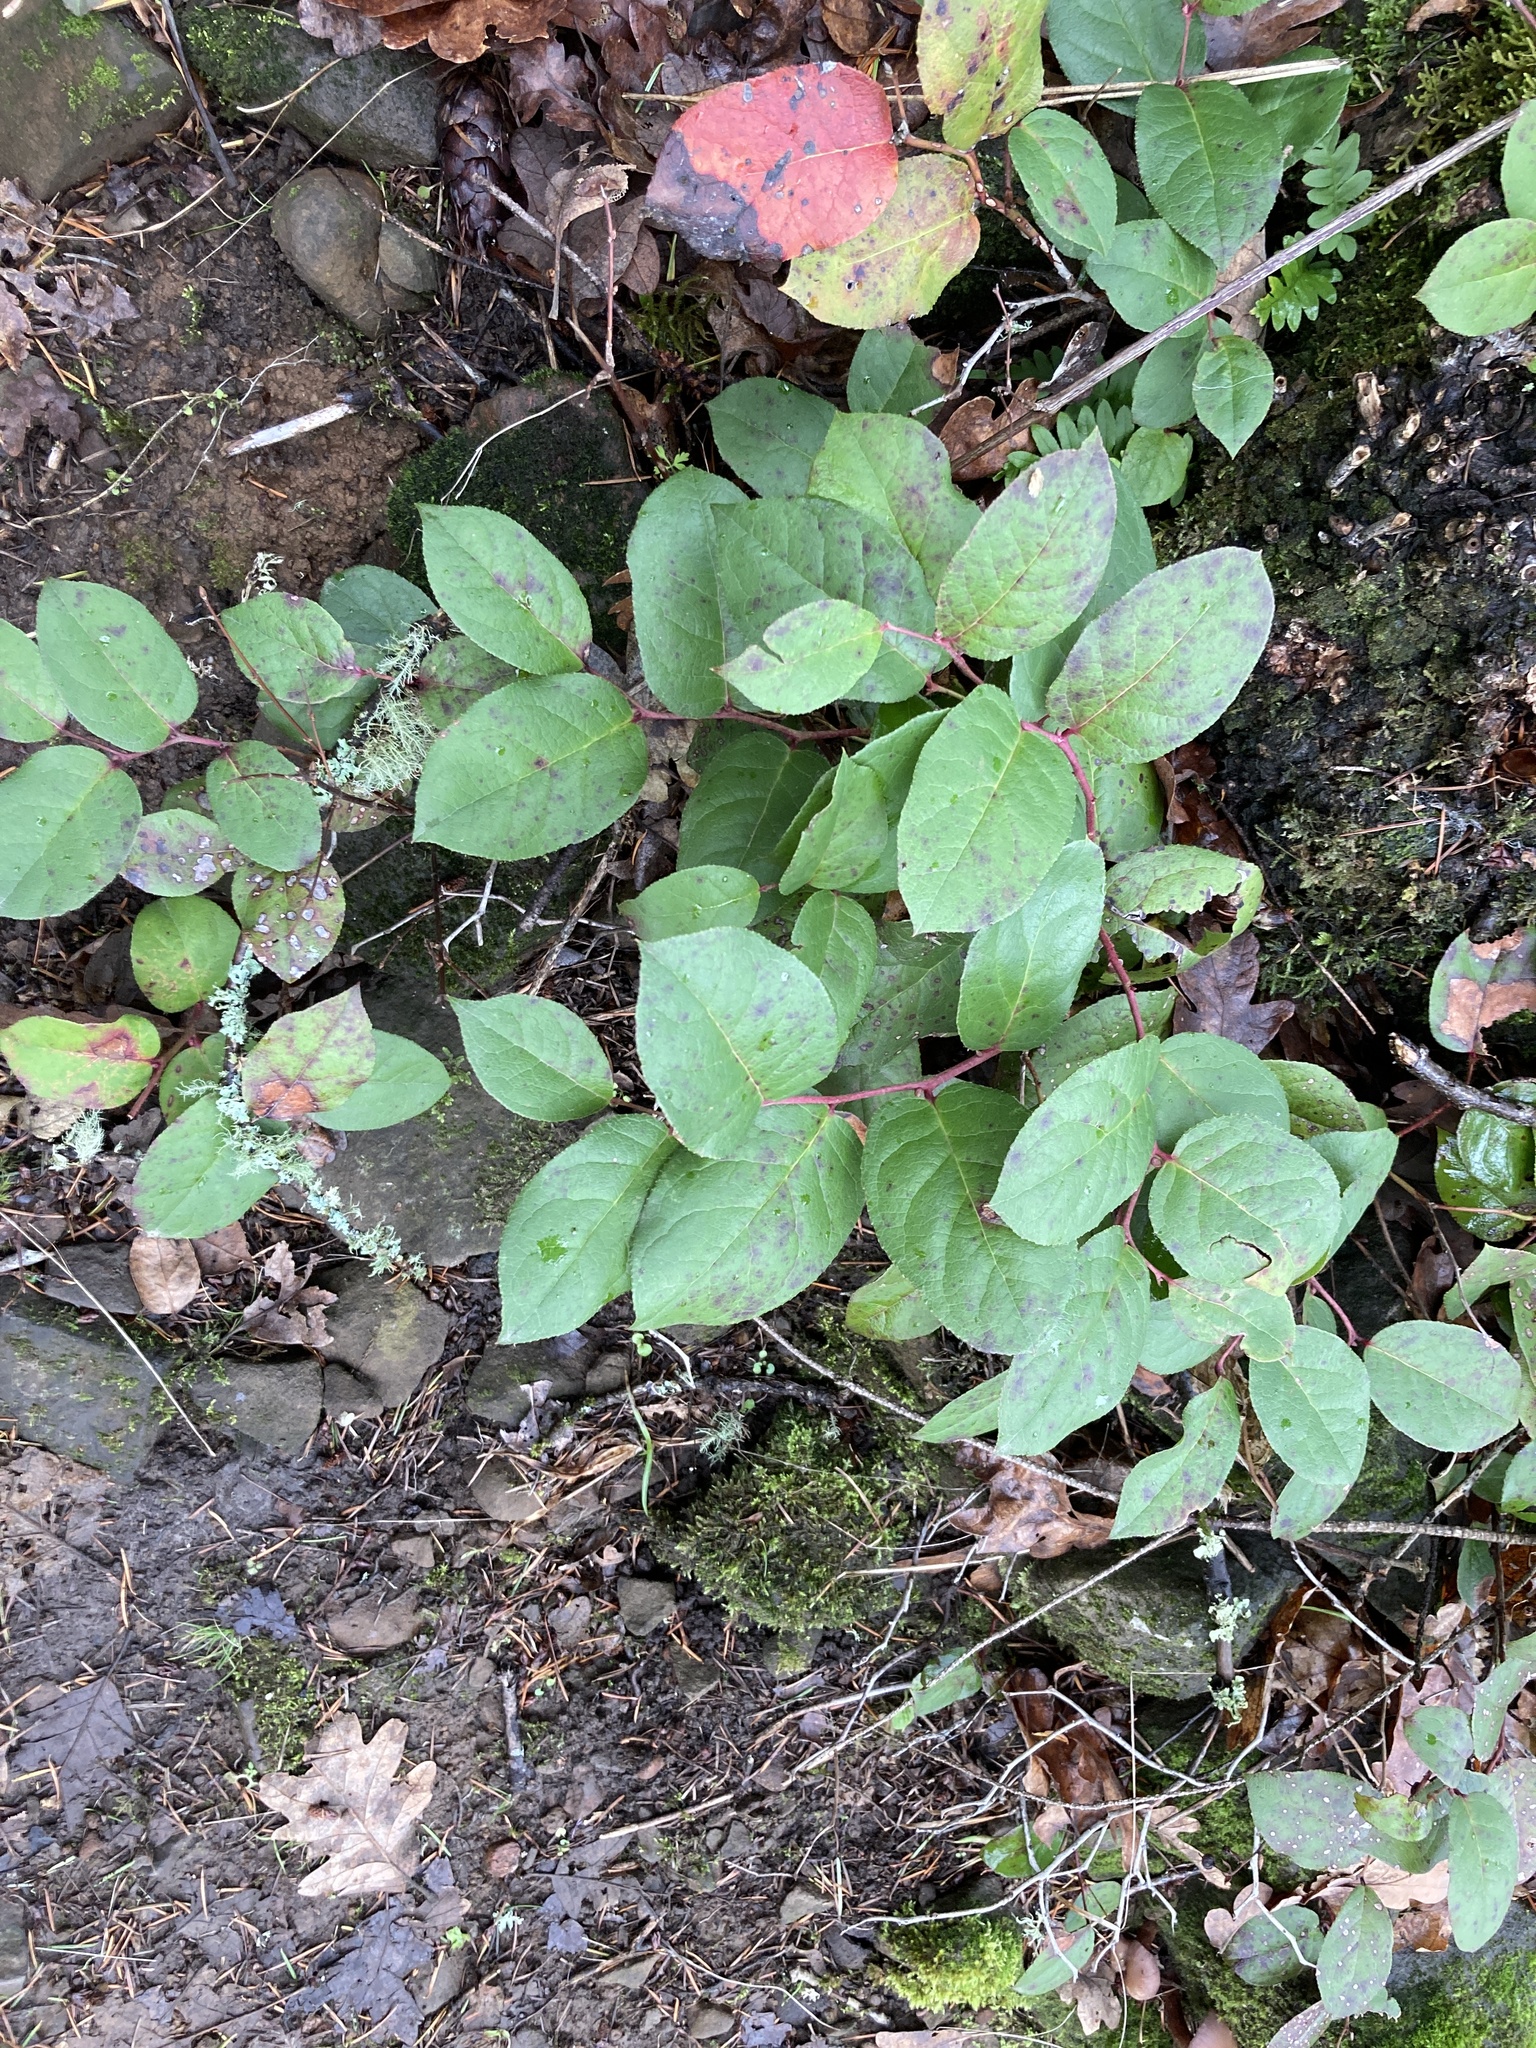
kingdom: Plantae
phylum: Tracheophyta
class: Magnoliopsida
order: Ericales
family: Ericaceae
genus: Gaultheria
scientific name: Gaultheria shallon
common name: Shallon
